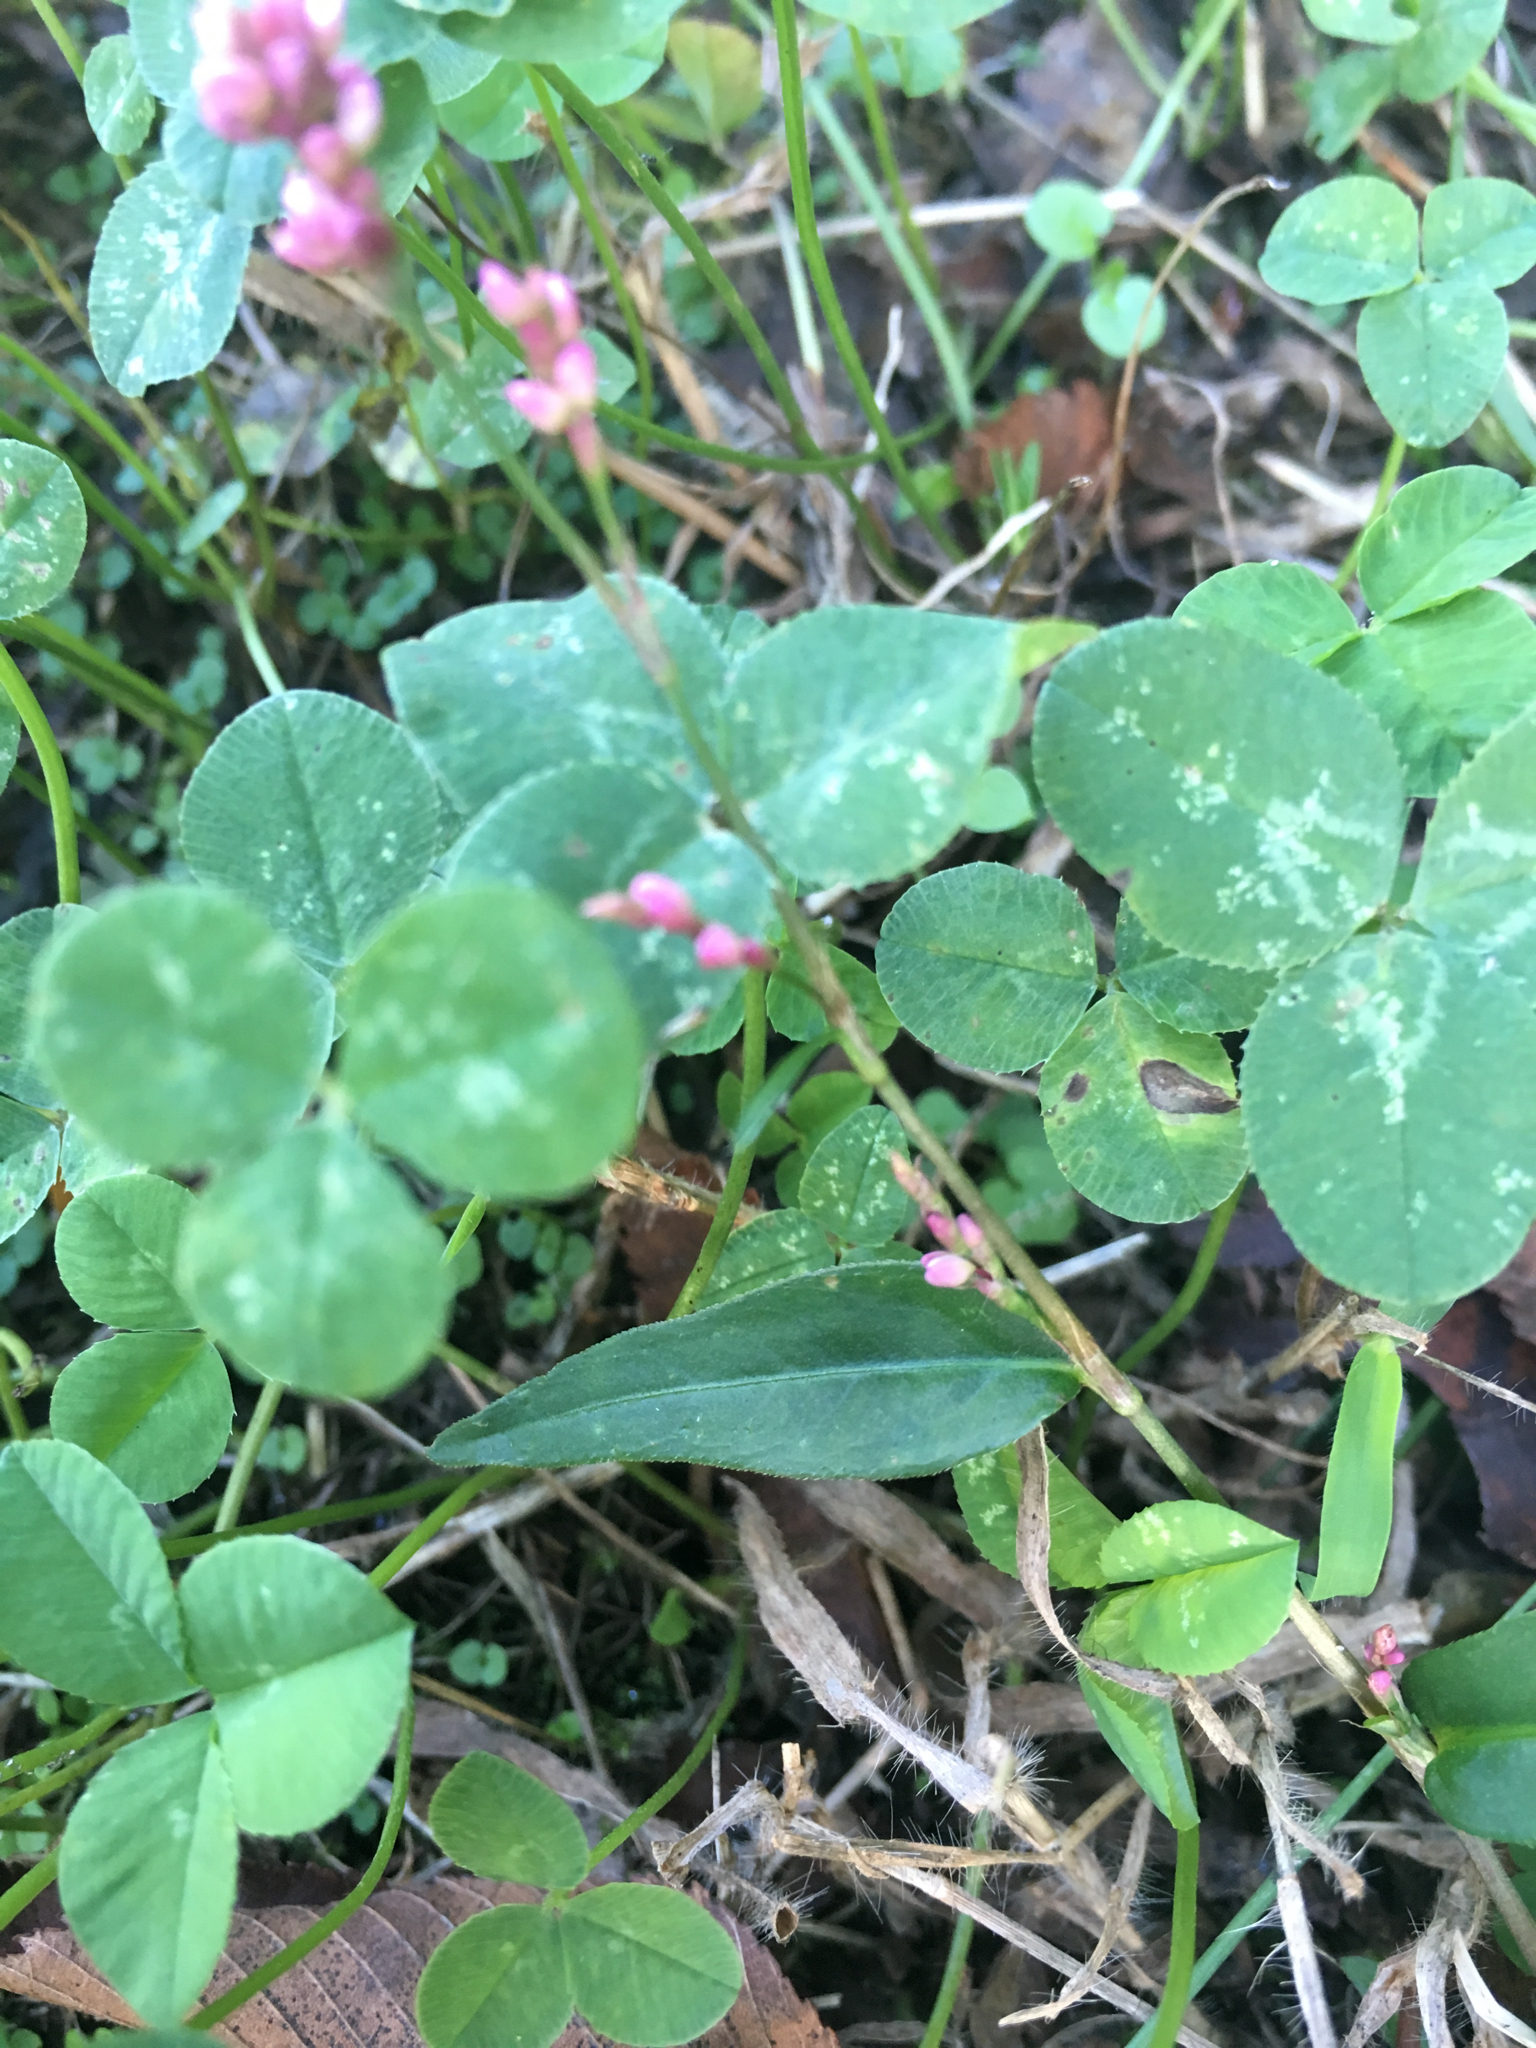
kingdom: Plantae
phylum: Tracheophyta
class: Magnoliopsida
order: Caryophyllales
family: Polygonaceae
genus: Persicaria
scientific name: Persicaria longiseta
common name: Bristly lady's-thumb
